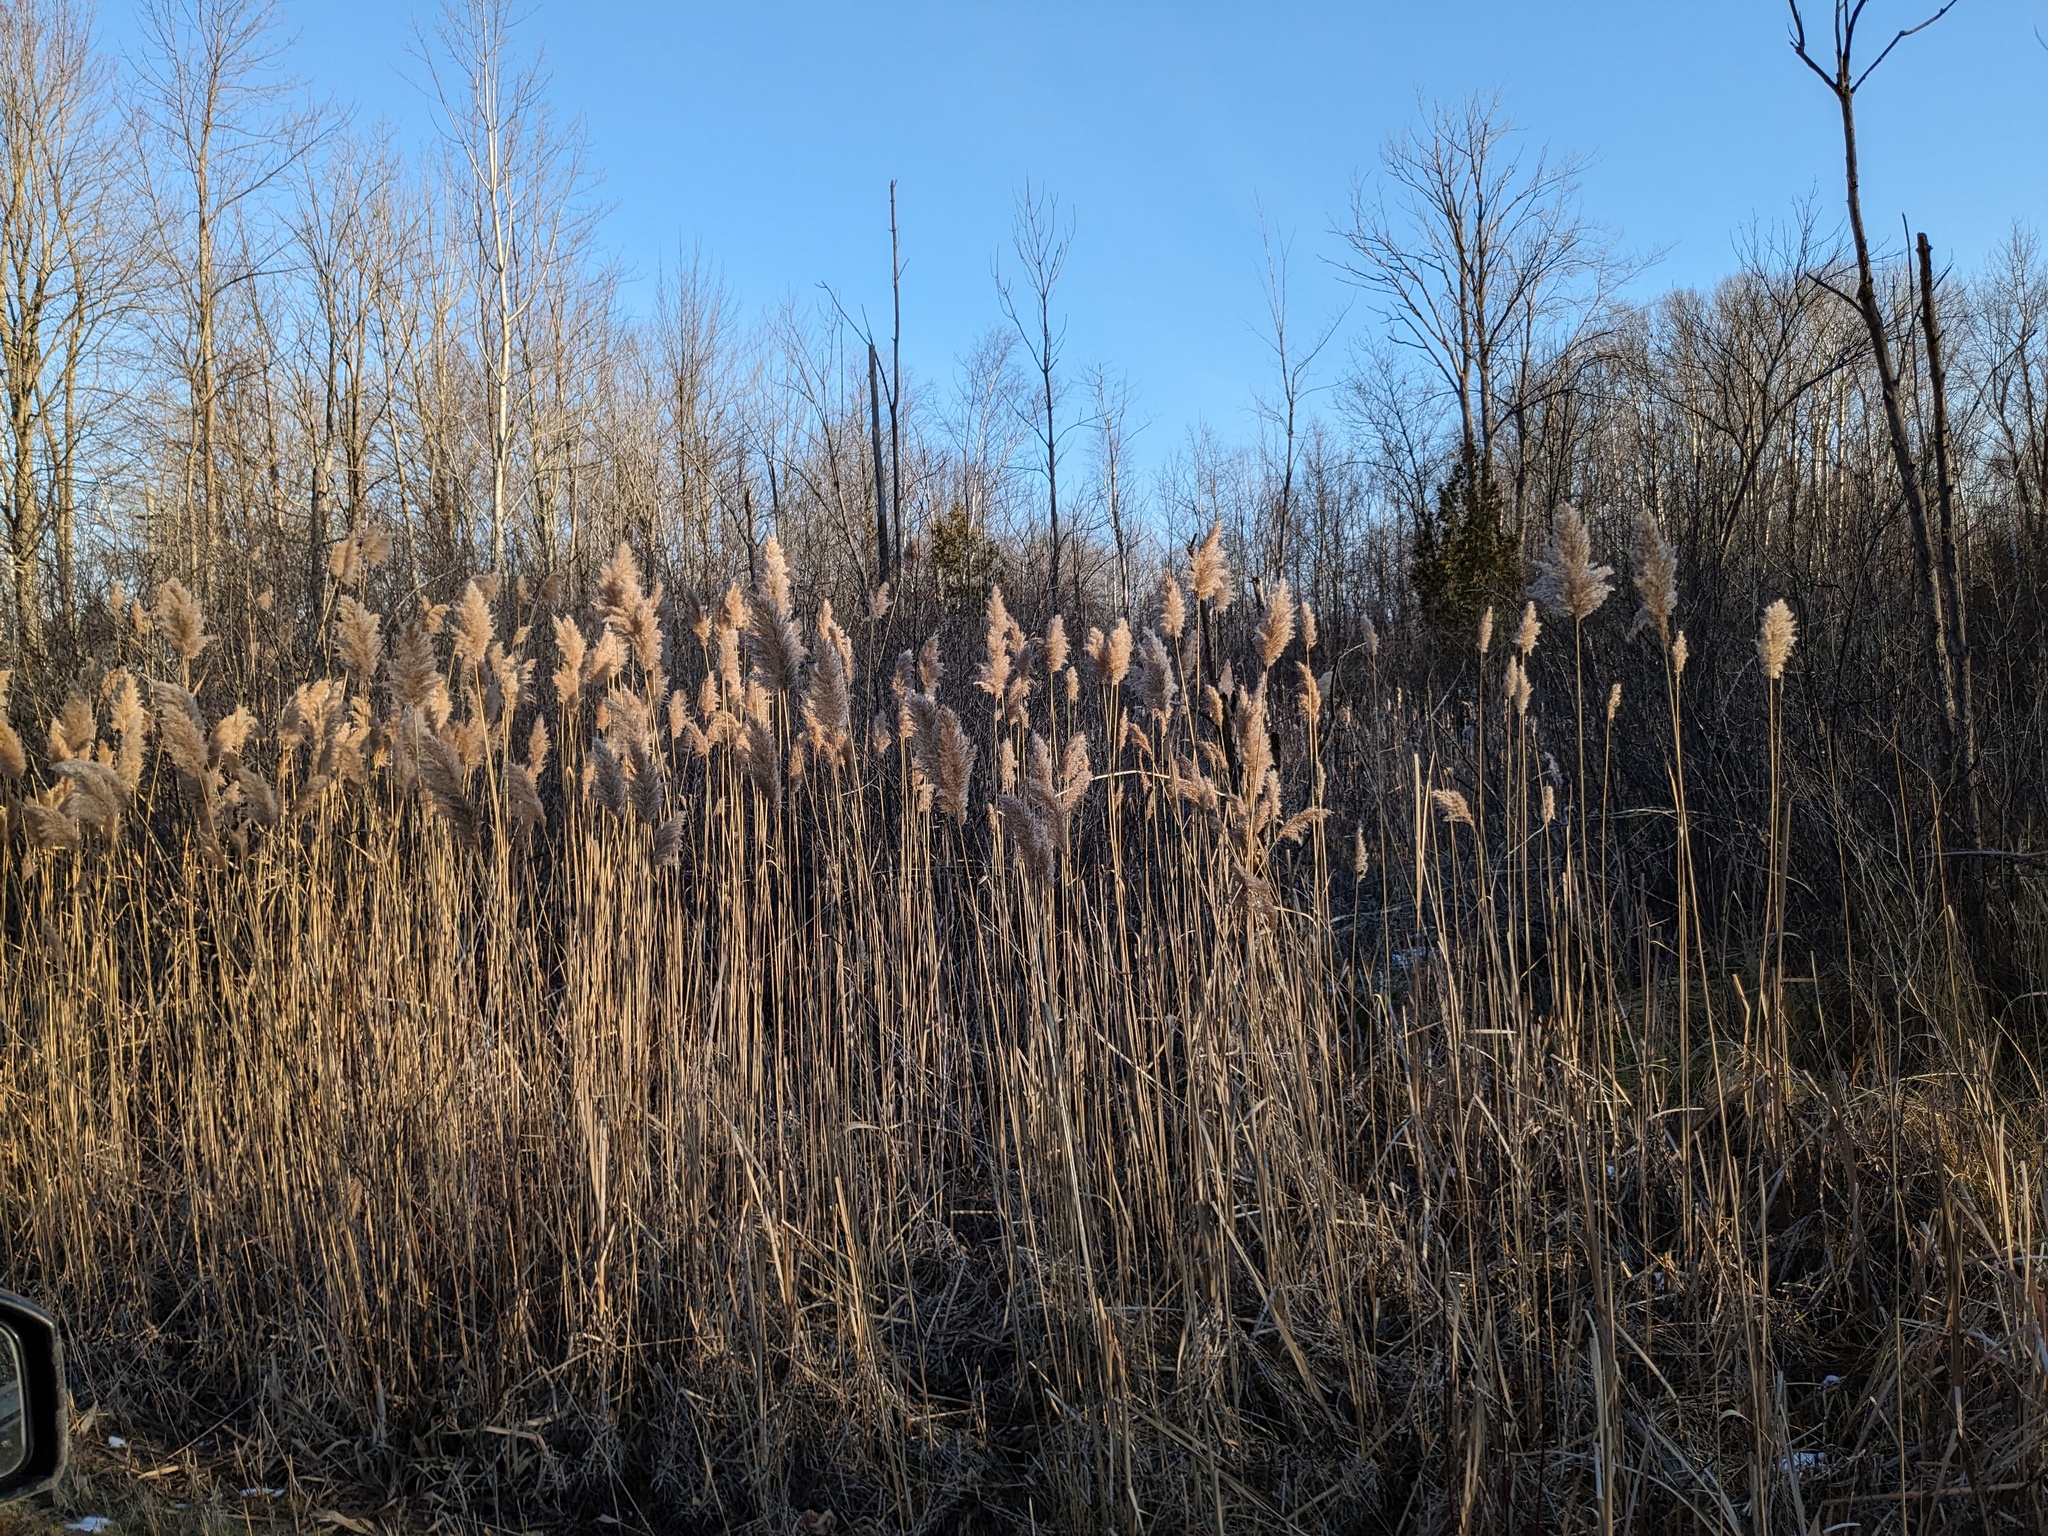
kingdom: Plantae
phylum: Tracheophyta
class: Liliopsida
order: Poales
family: Poaceae
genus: Phragmites
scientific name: Phragmites australis
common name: Common reed
